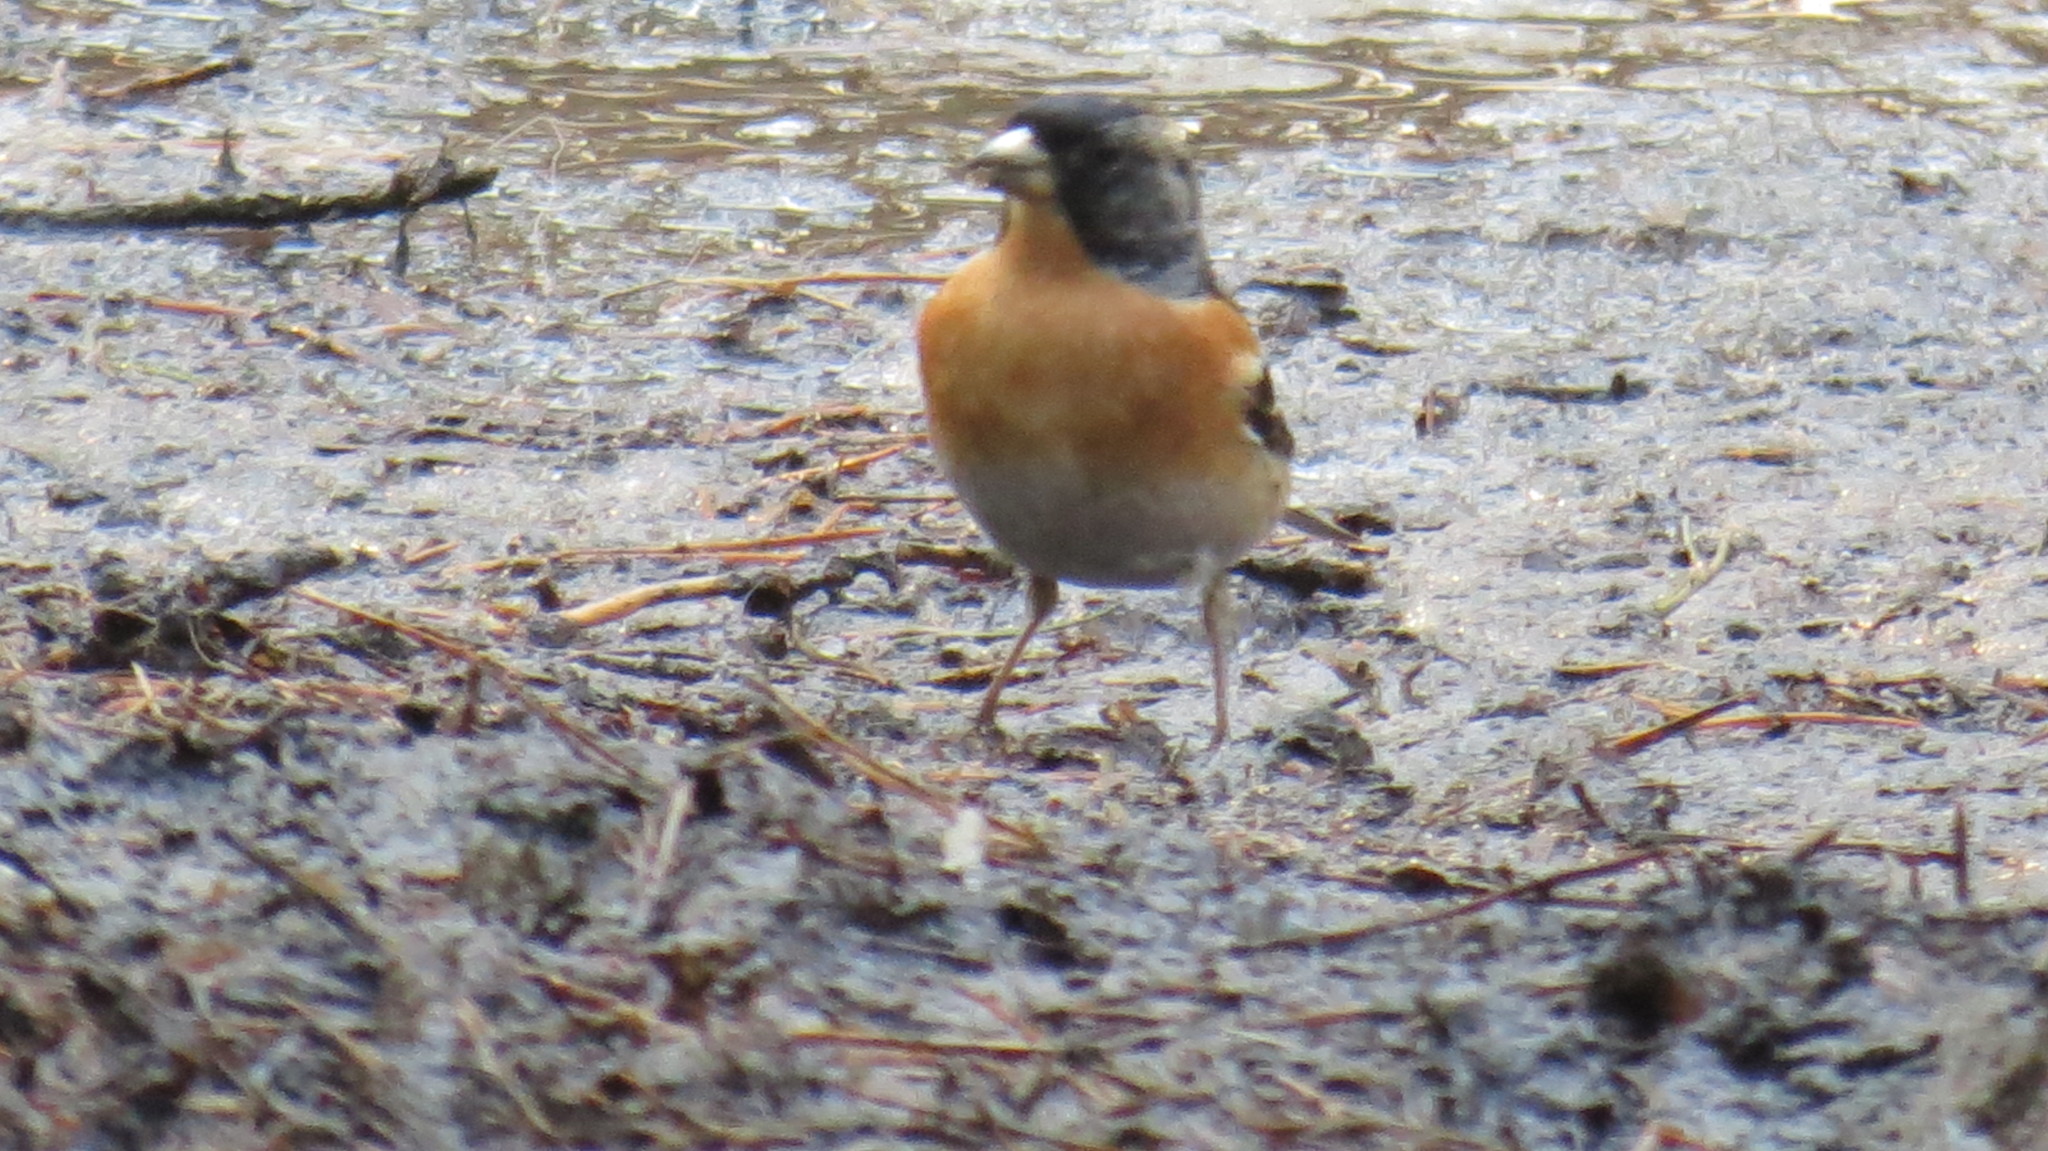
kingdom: Animalia
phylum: Chordata
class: Aves
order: Passeriformes
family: Fringillidae
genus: Fringilla
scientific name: Fringilla montifringilla
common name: Brambling
